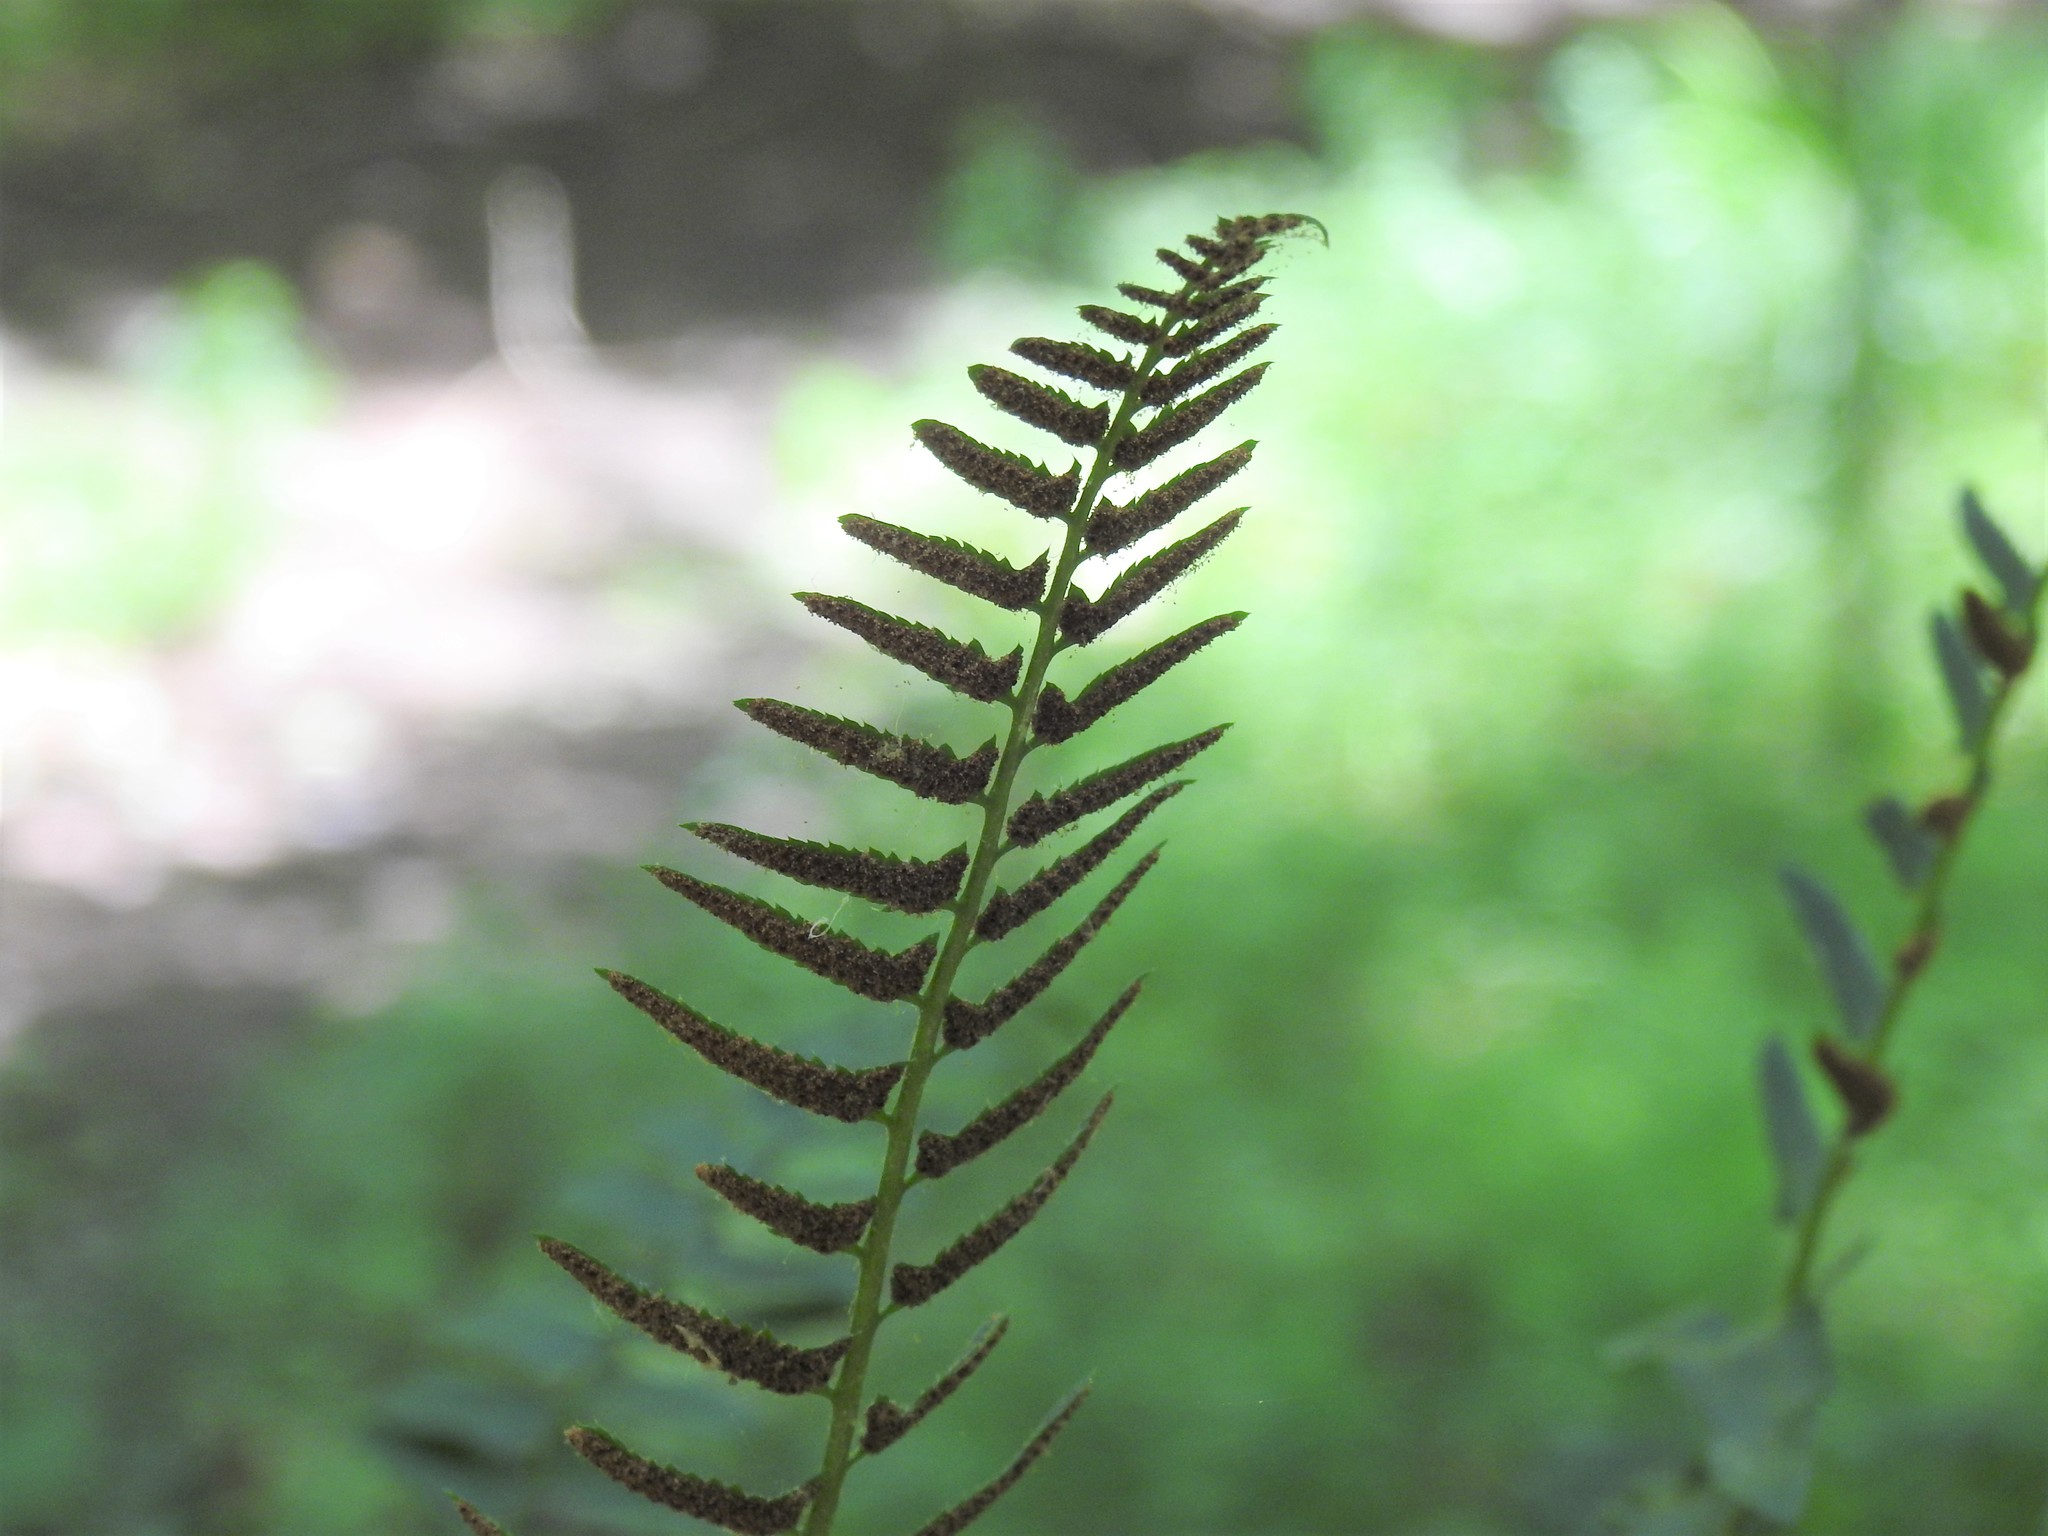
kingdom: Plantae
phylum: Tracheophyta
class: Polypodiopsida
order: Polypodiales
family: Dryopteridaceae
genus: Polystichum
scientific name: Polystichum acrostichoides
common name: Christmas fern
